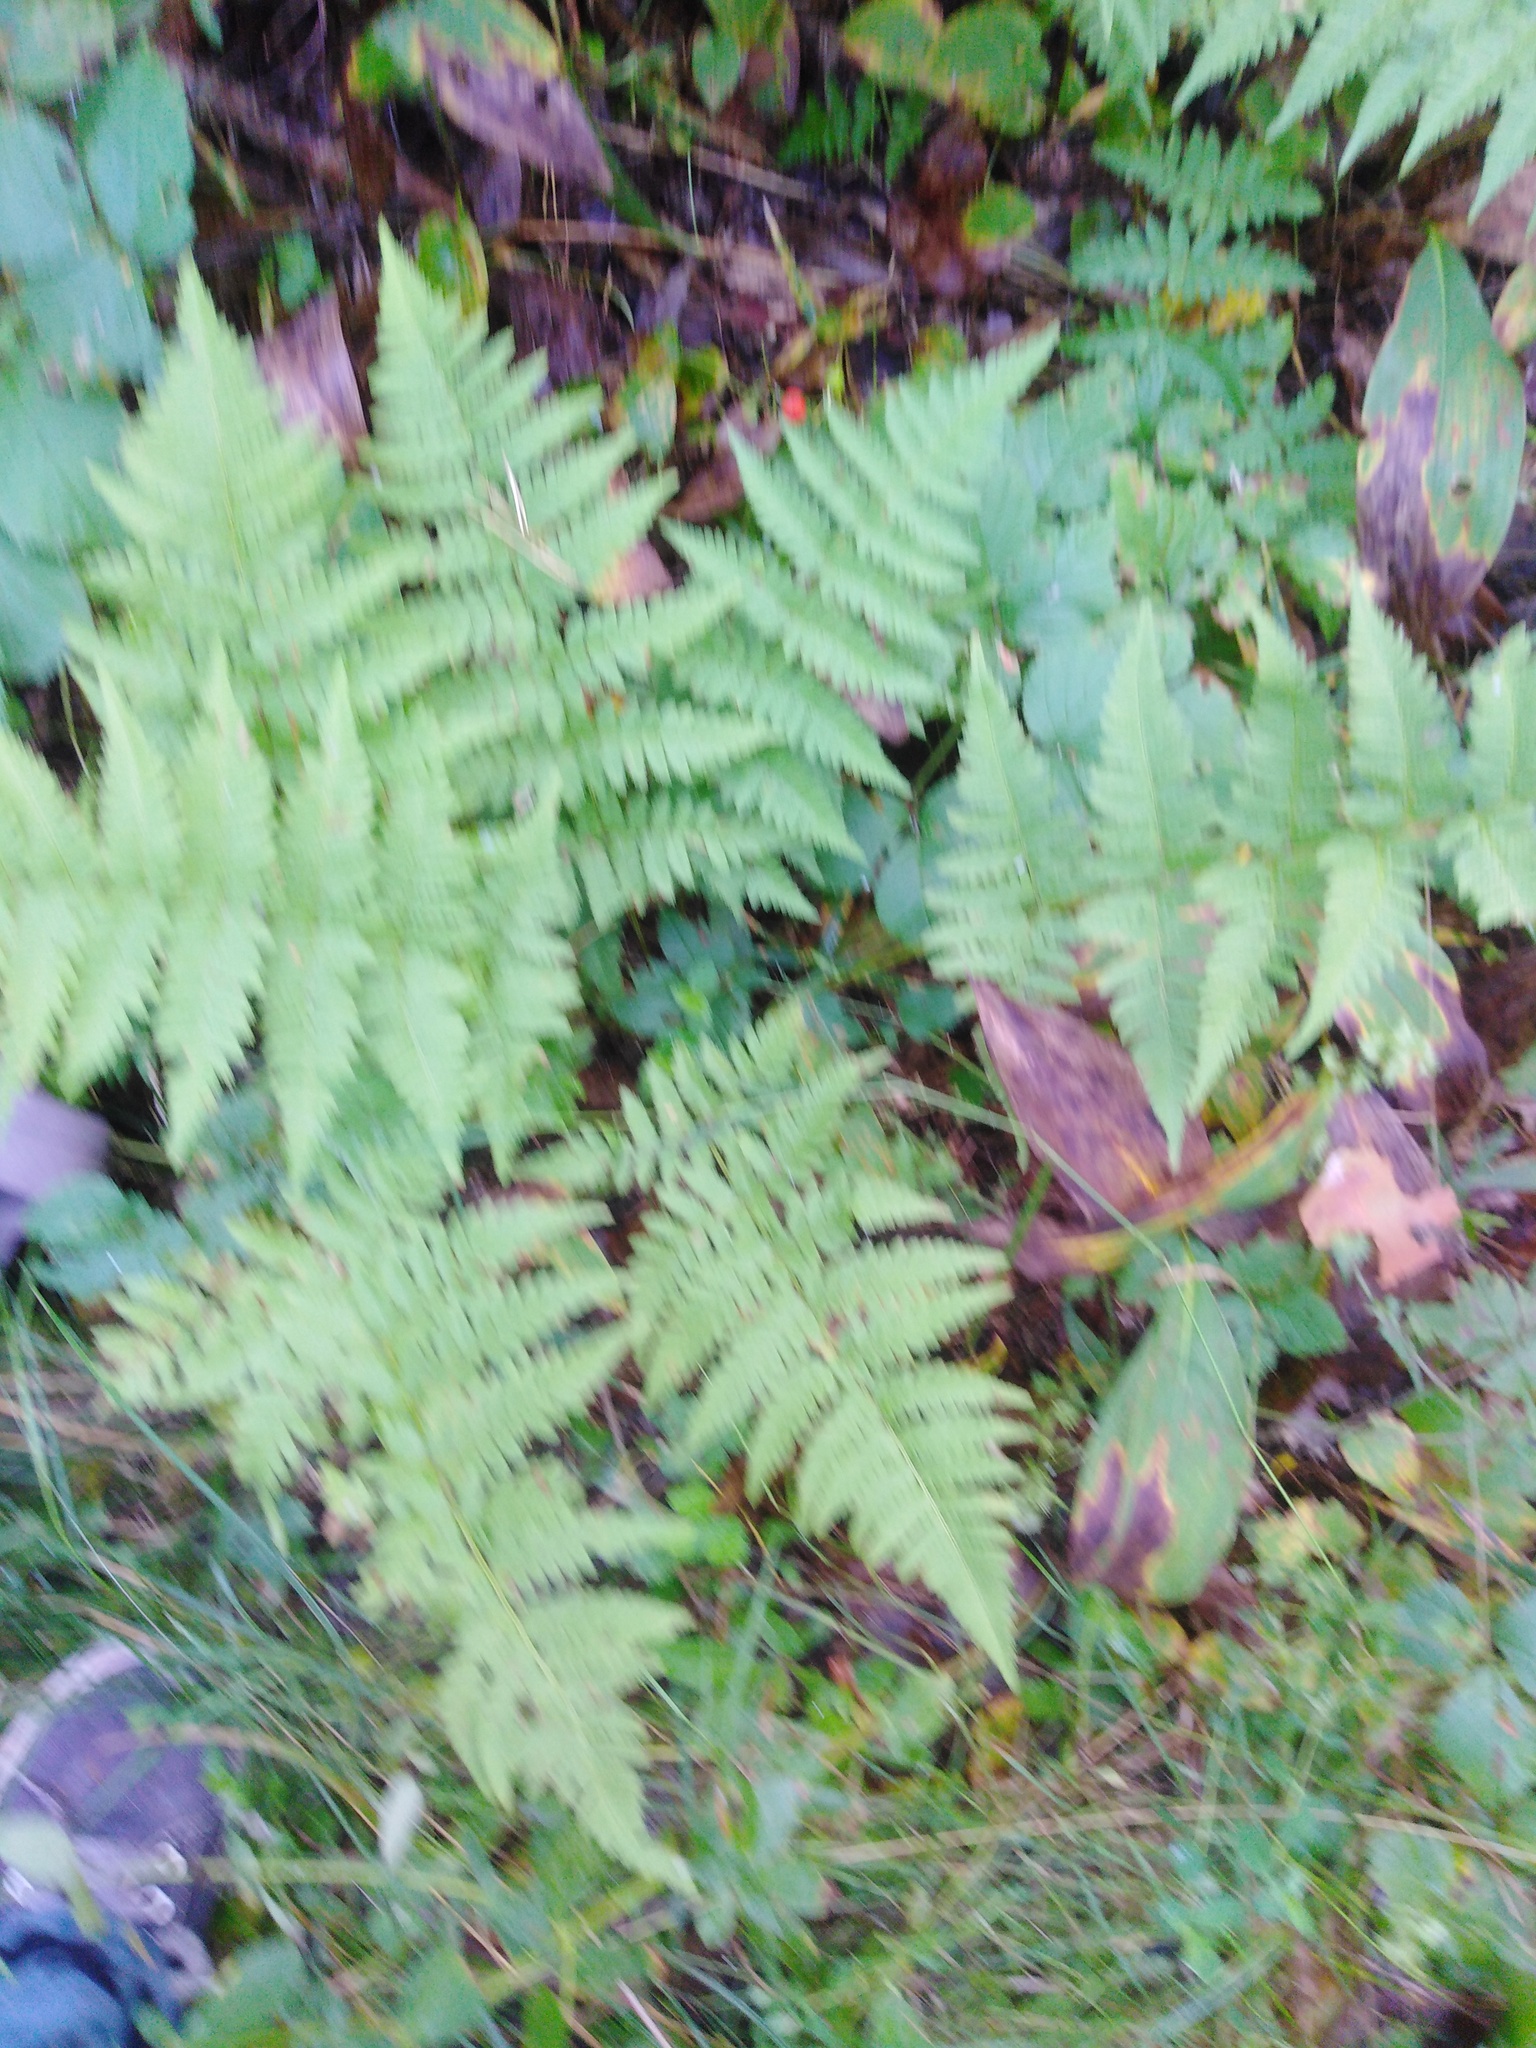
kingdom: Plantae
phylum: Tracheophyta
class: Polypodiopsida
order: Polypodiales
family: Dryopteridaceae
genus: Dryopteris
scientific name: Dryopteris carthusiana
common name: Narrow buckler-fern
